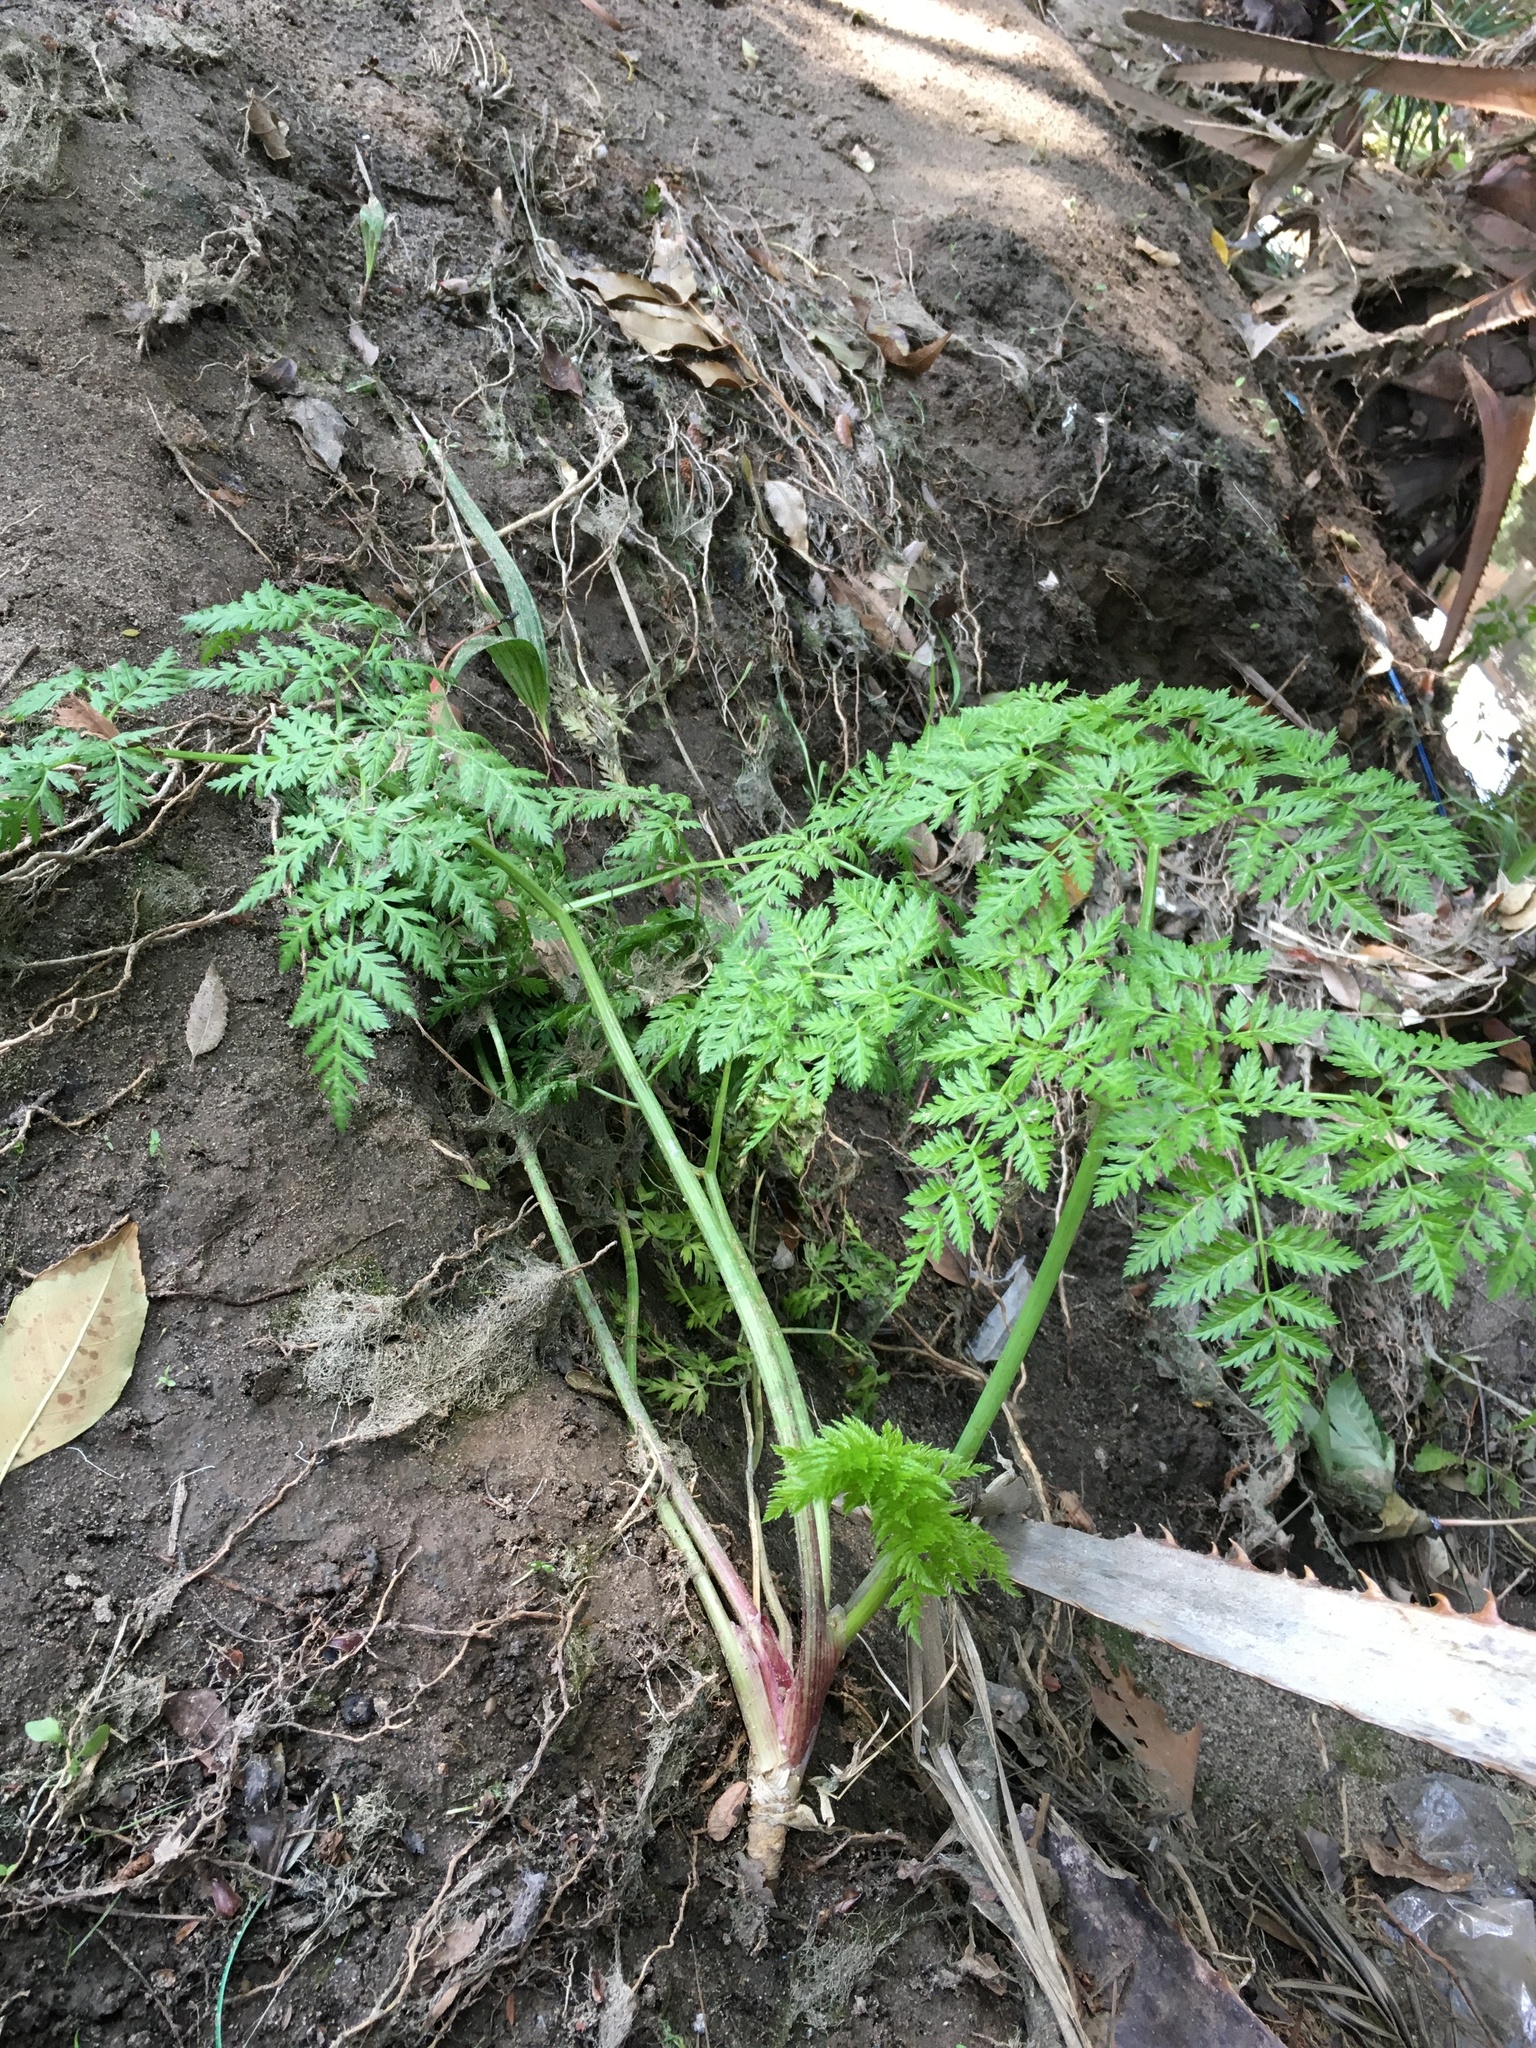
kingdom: Plantae
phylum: Tracheophyta
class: Magnoliopsida
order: Apiales
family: Apiaceae
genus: Conium
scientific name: Conium maculatum
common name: Hemlock
